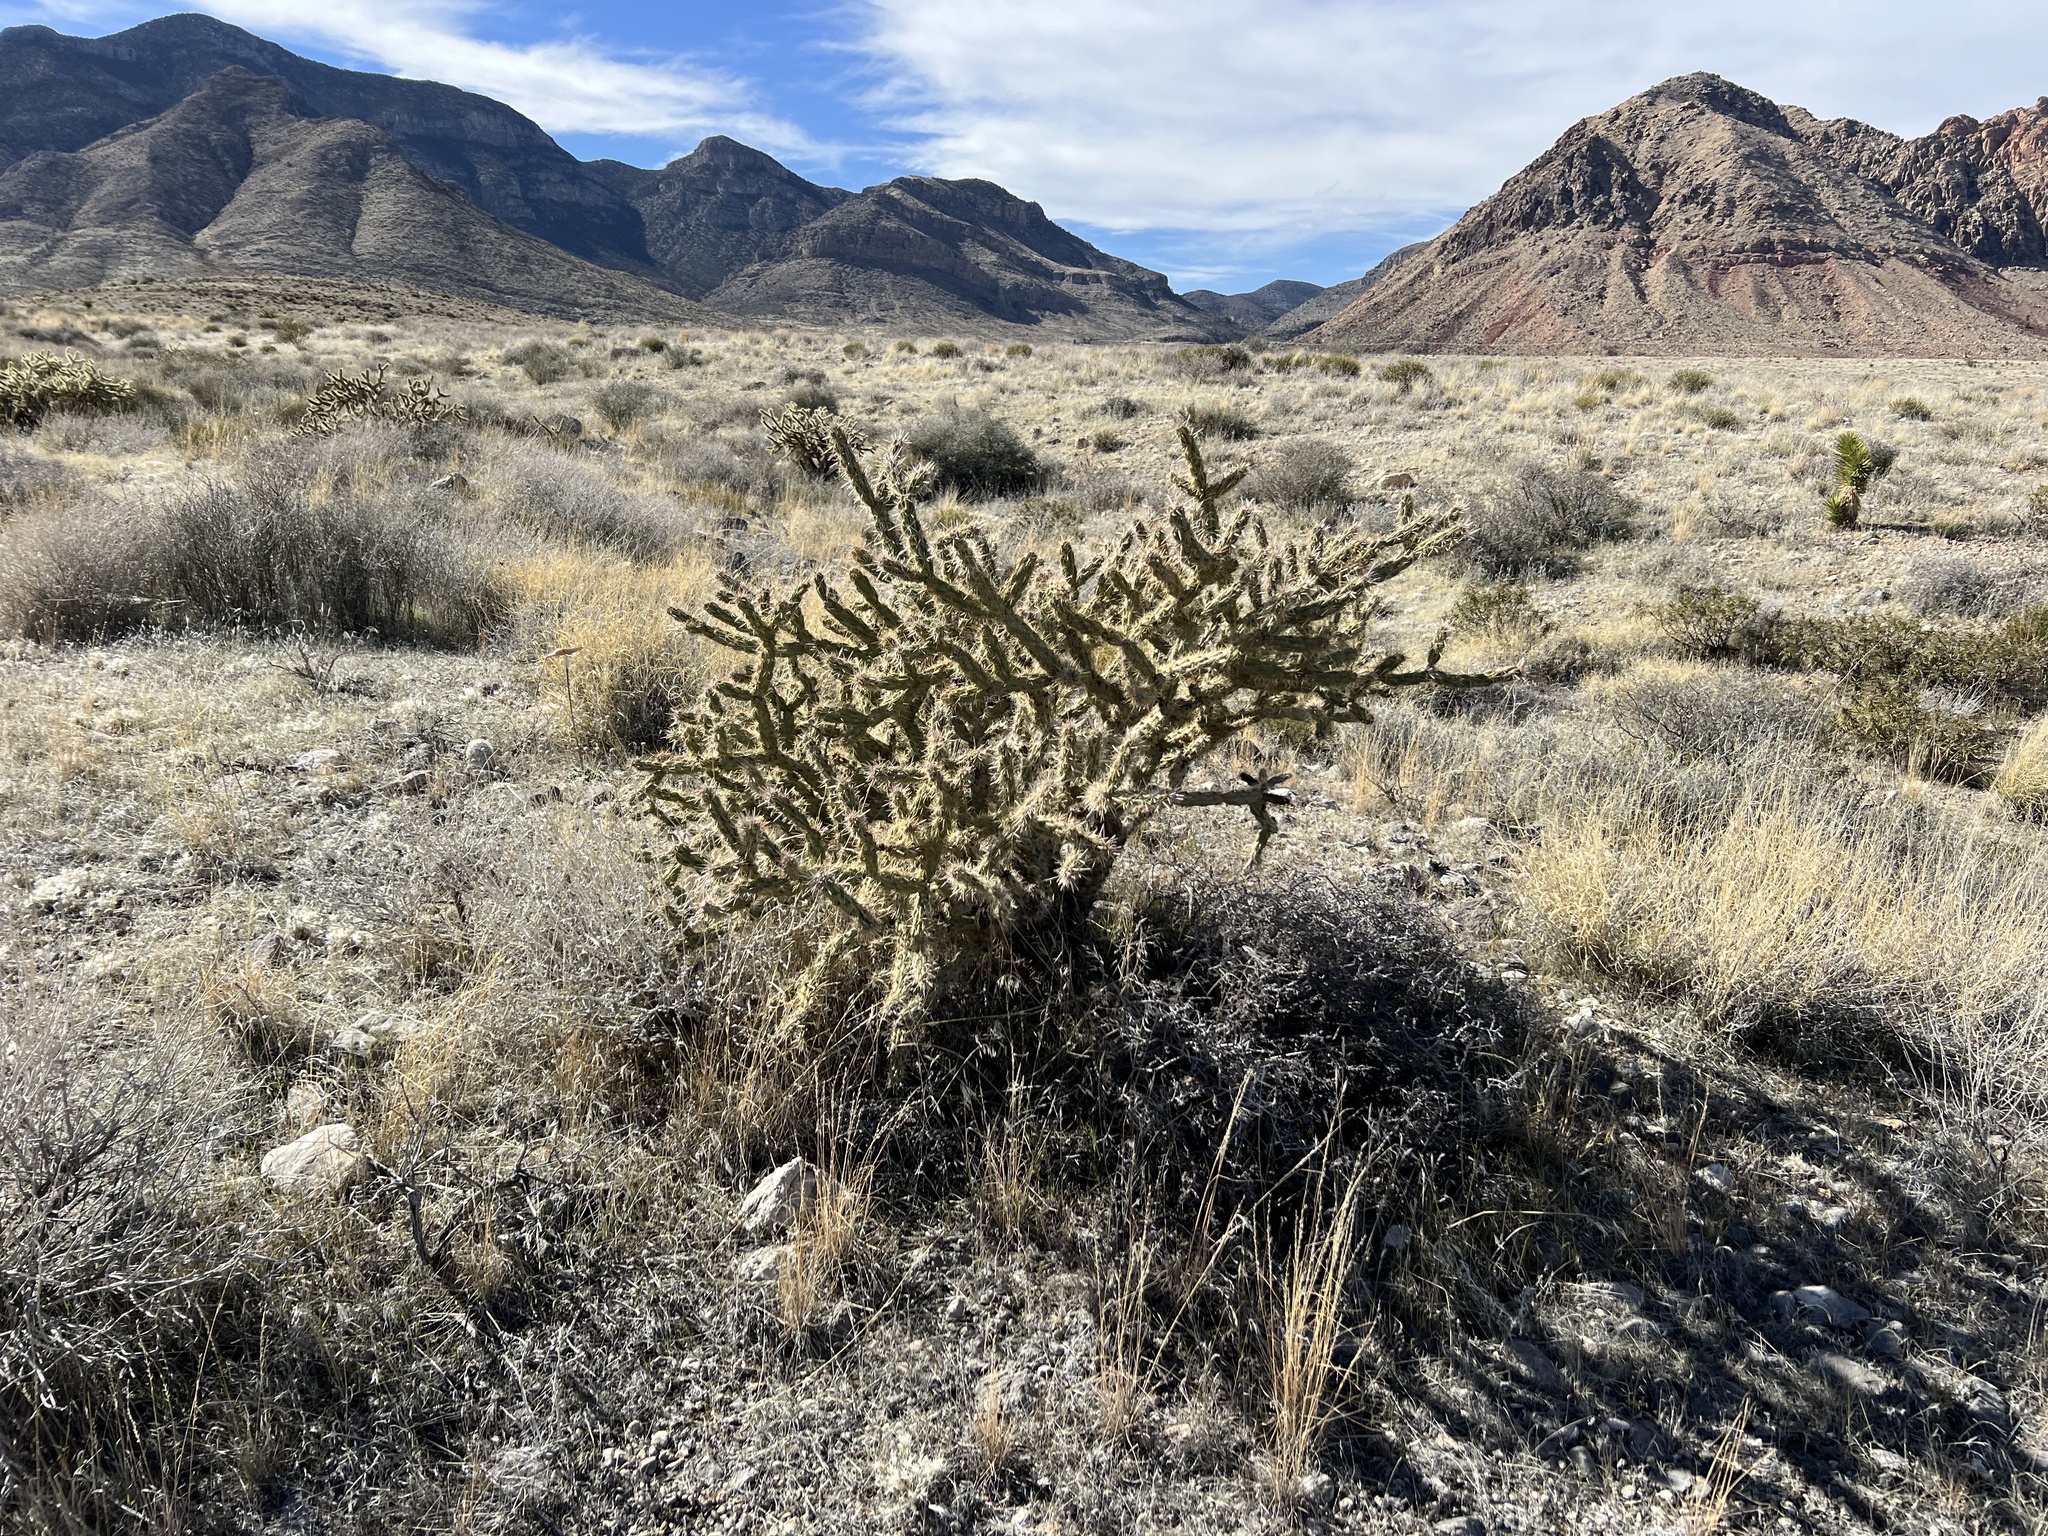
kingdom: Plantae
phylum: Tracheophyta
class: Magnoliopsida
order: Caryophyllales
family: Cactaceae
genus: Cylindropuntia
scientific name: Cylindropuntia acanthocarpa
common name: Buckhorn cholla
